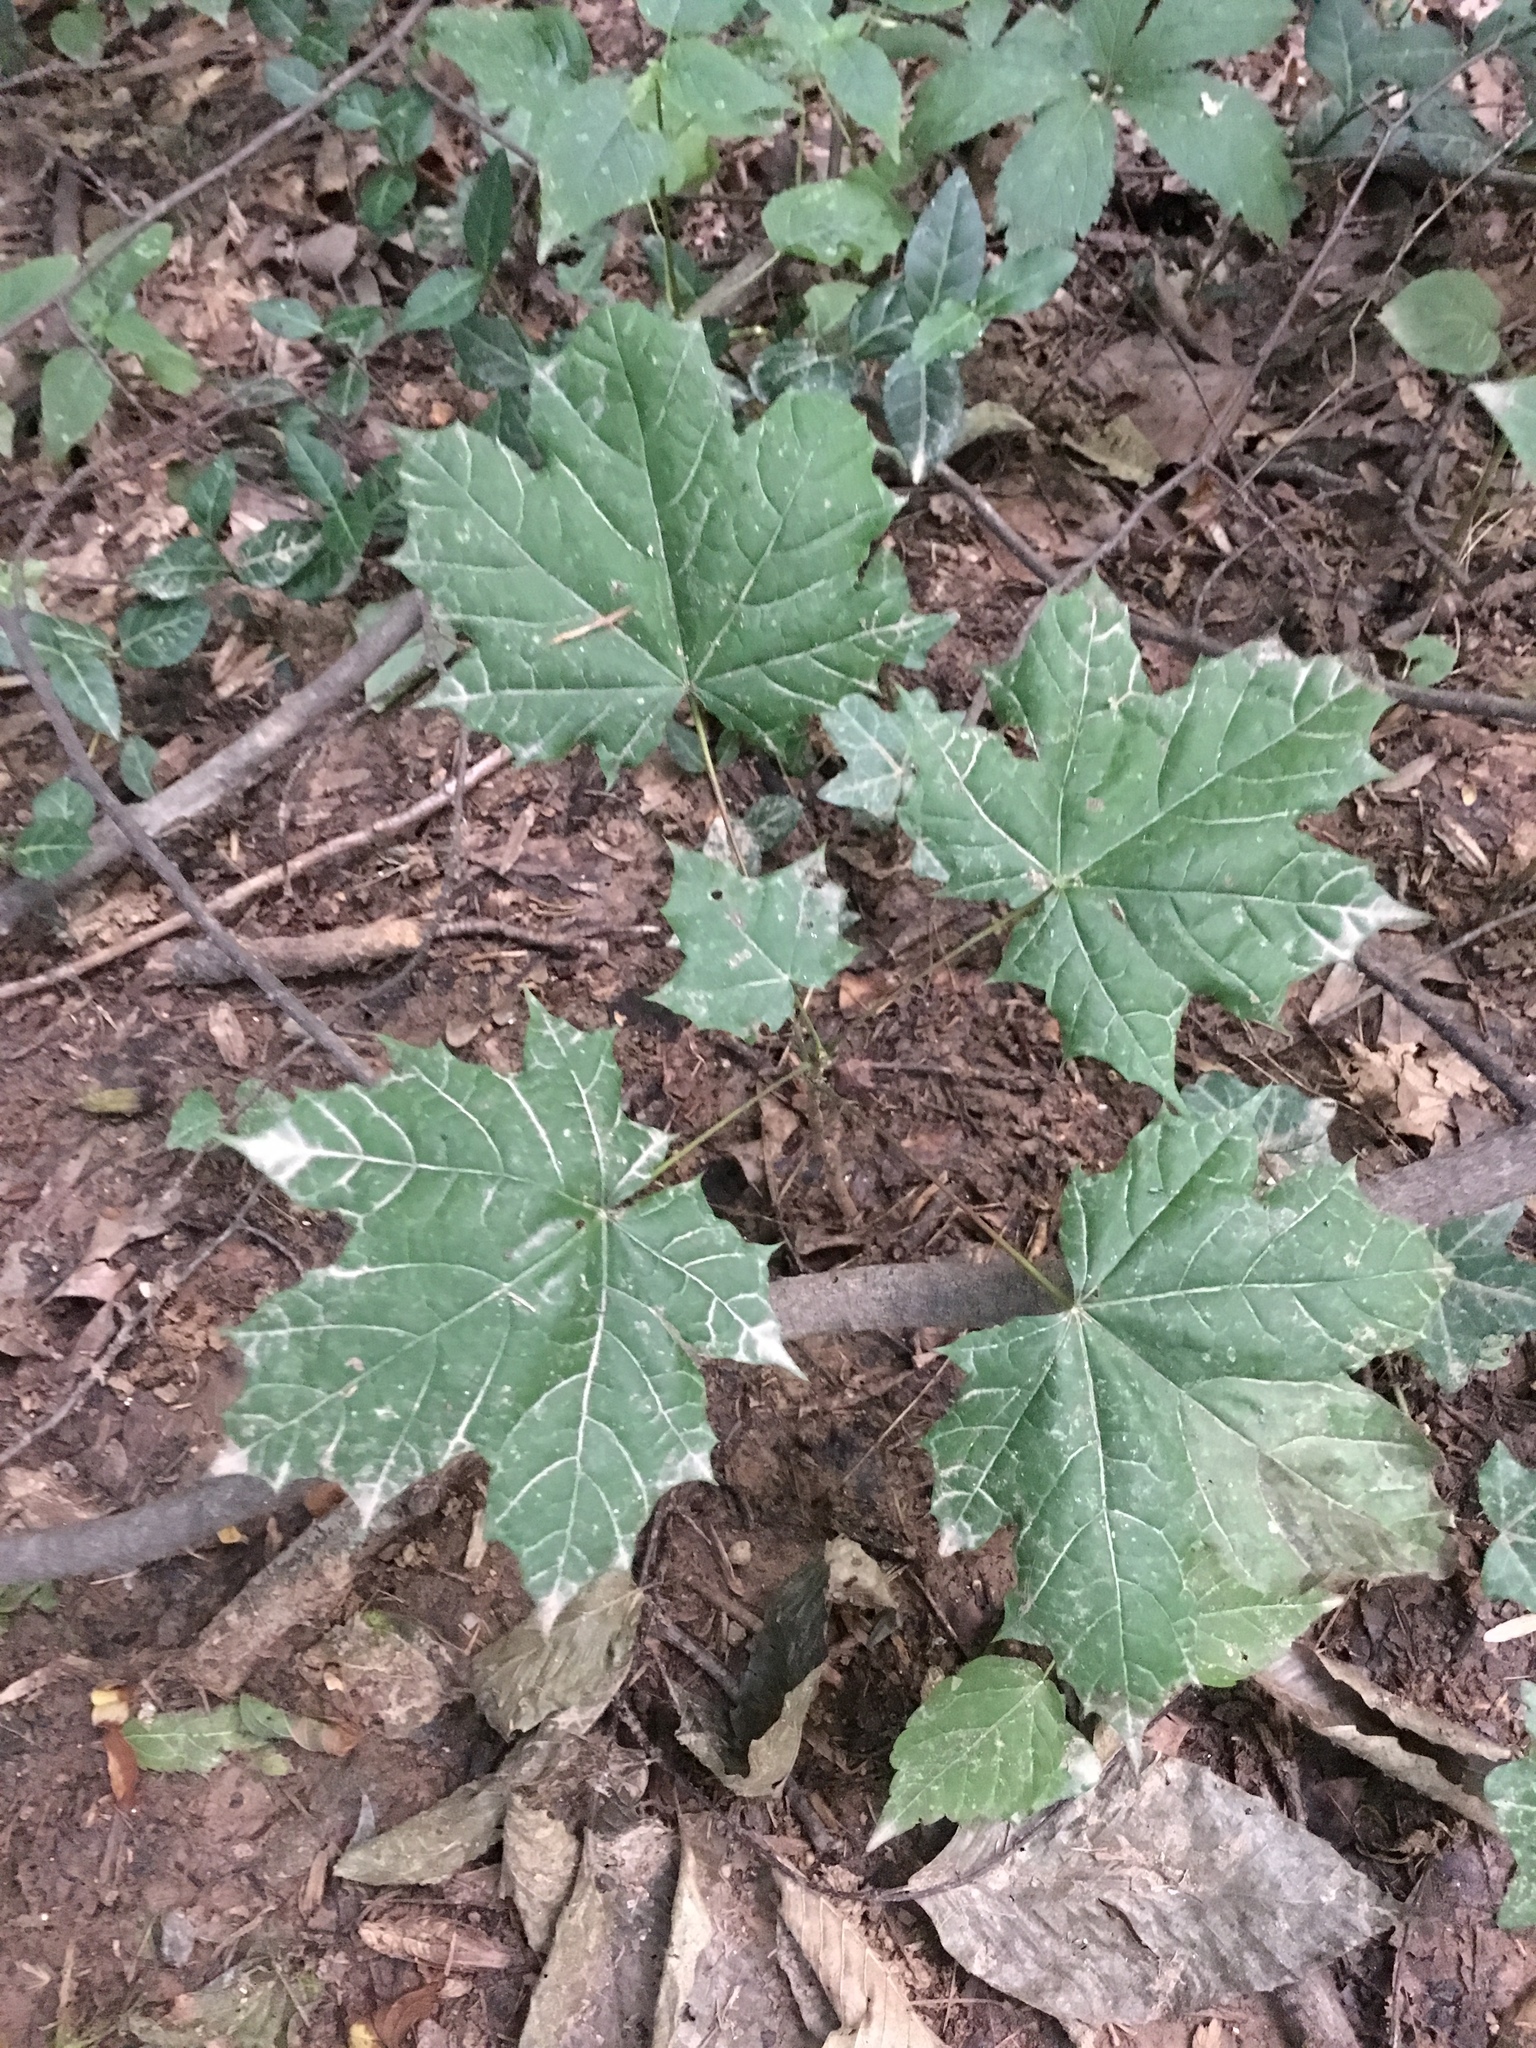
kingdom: Plantae
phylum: Tracheophyta
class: Magnoliopsida
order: Sapindales
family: Sapindaceae
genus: Acer
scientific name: Acer platanoides
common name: Norway maple
